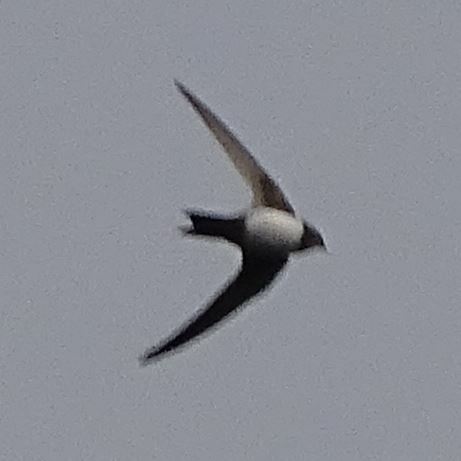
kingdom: Animalia
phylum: Chordata
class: Aves
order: Apodiformes
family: Apodidae
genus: Tachymarptis
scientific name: Tachymarptis melba
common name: Alpine swift
